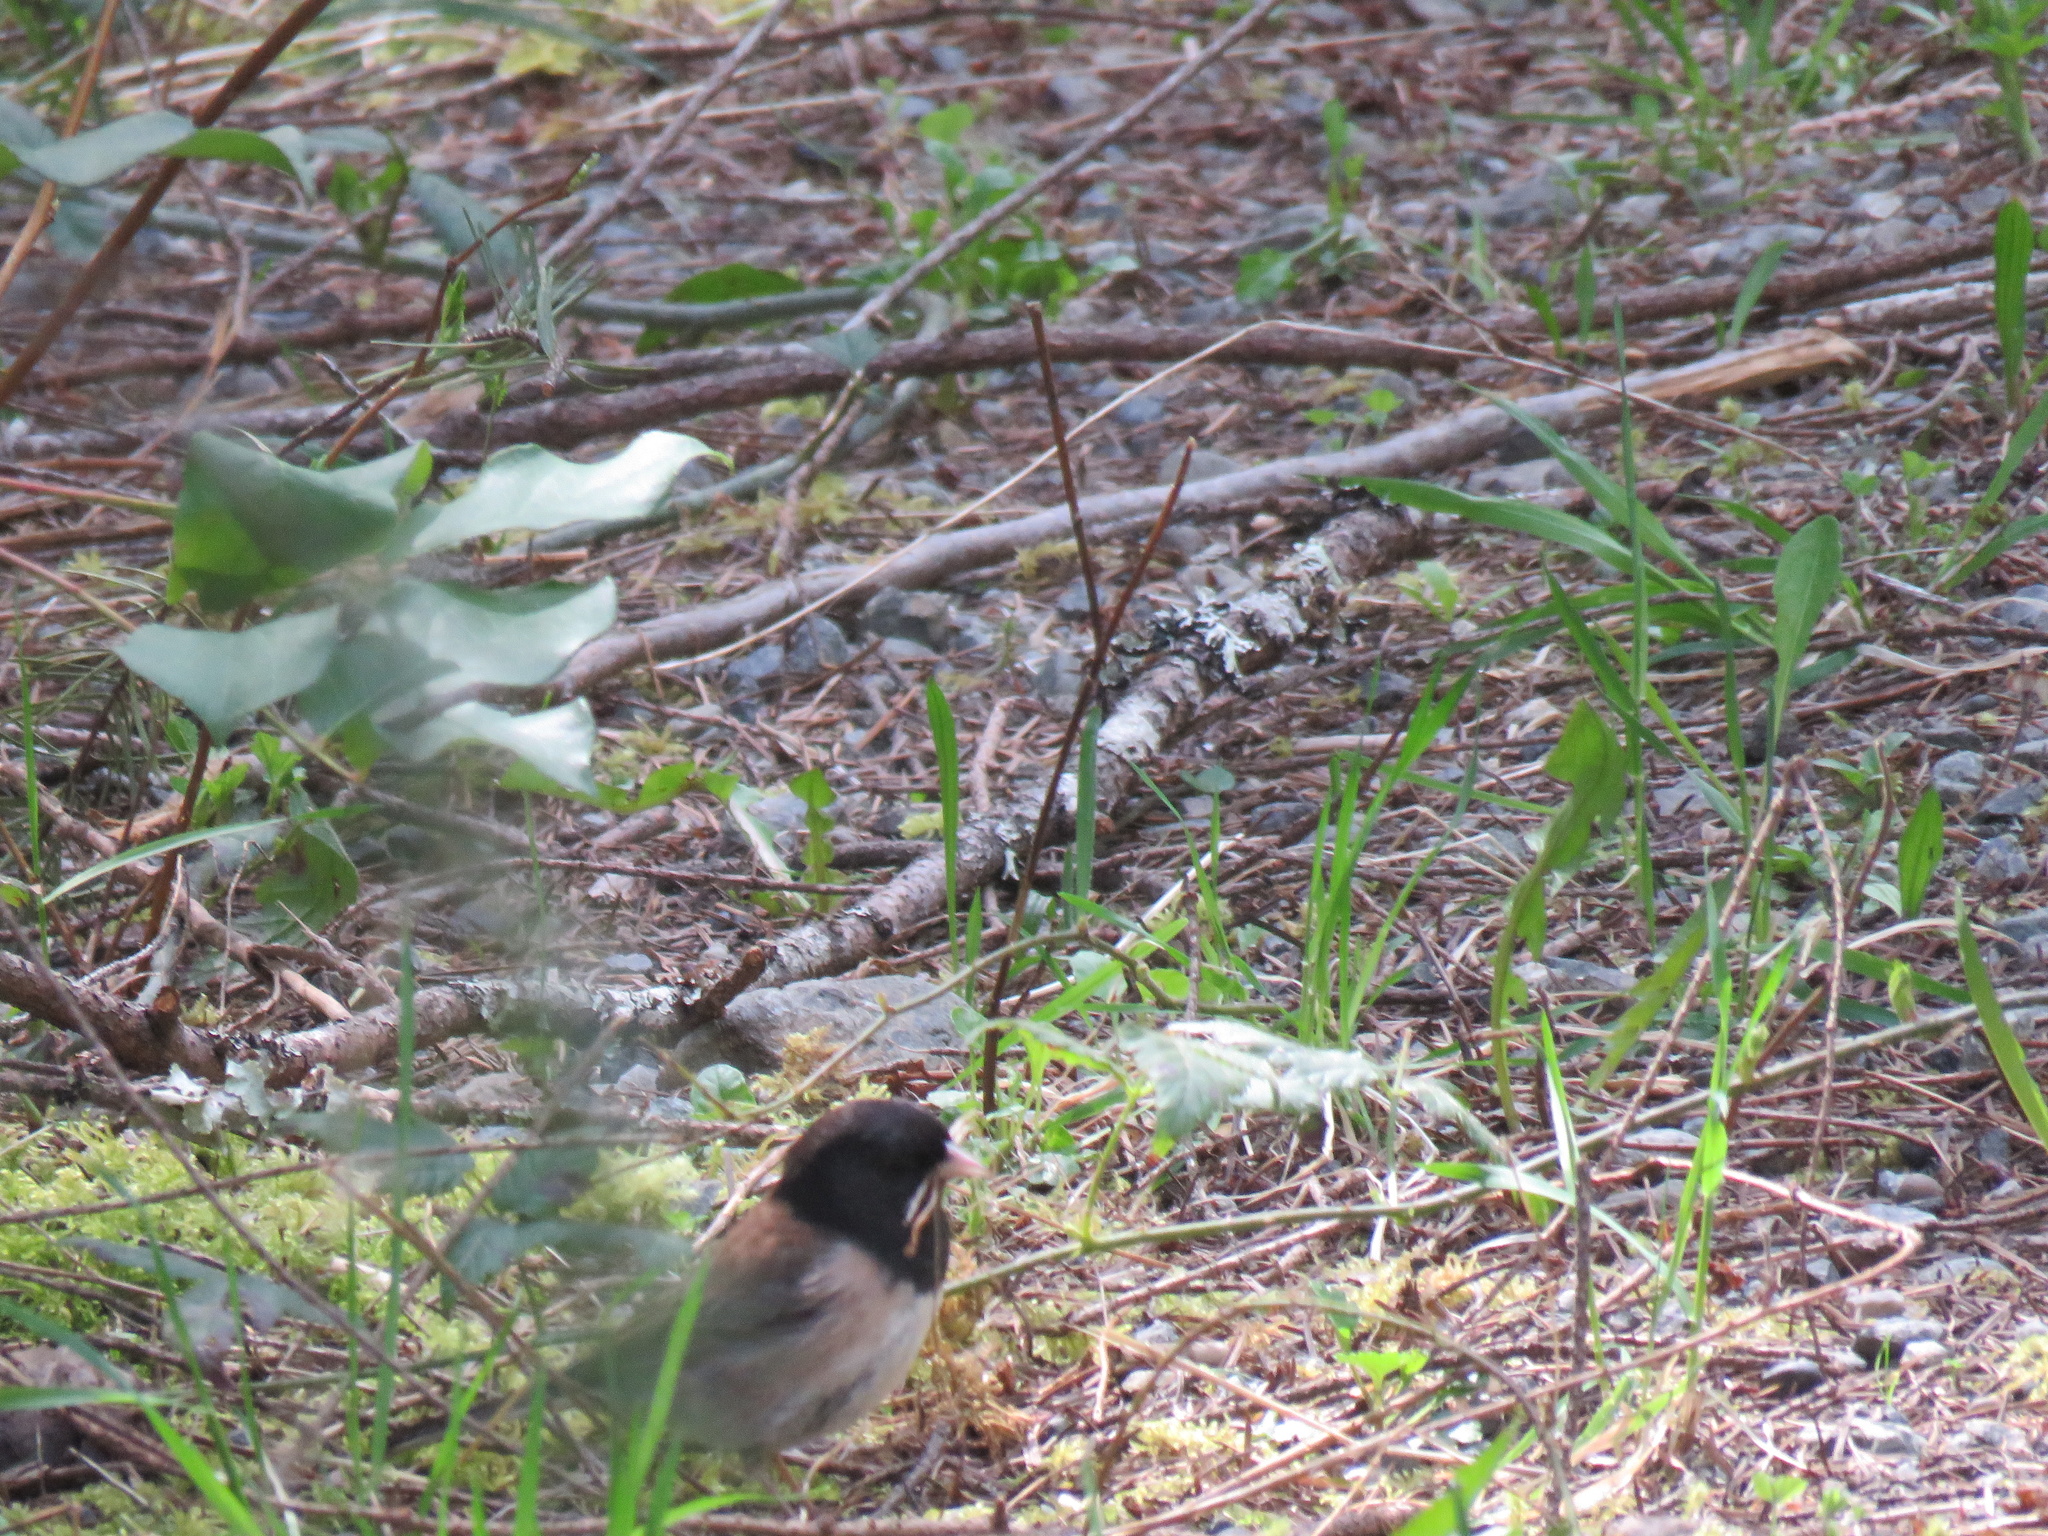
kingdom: Animalia
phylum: Chordata
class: Aves
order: Passeriformes
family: Passerellidae
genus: Junco
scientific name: Junco hyemalis
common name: Dark-eyed junco
